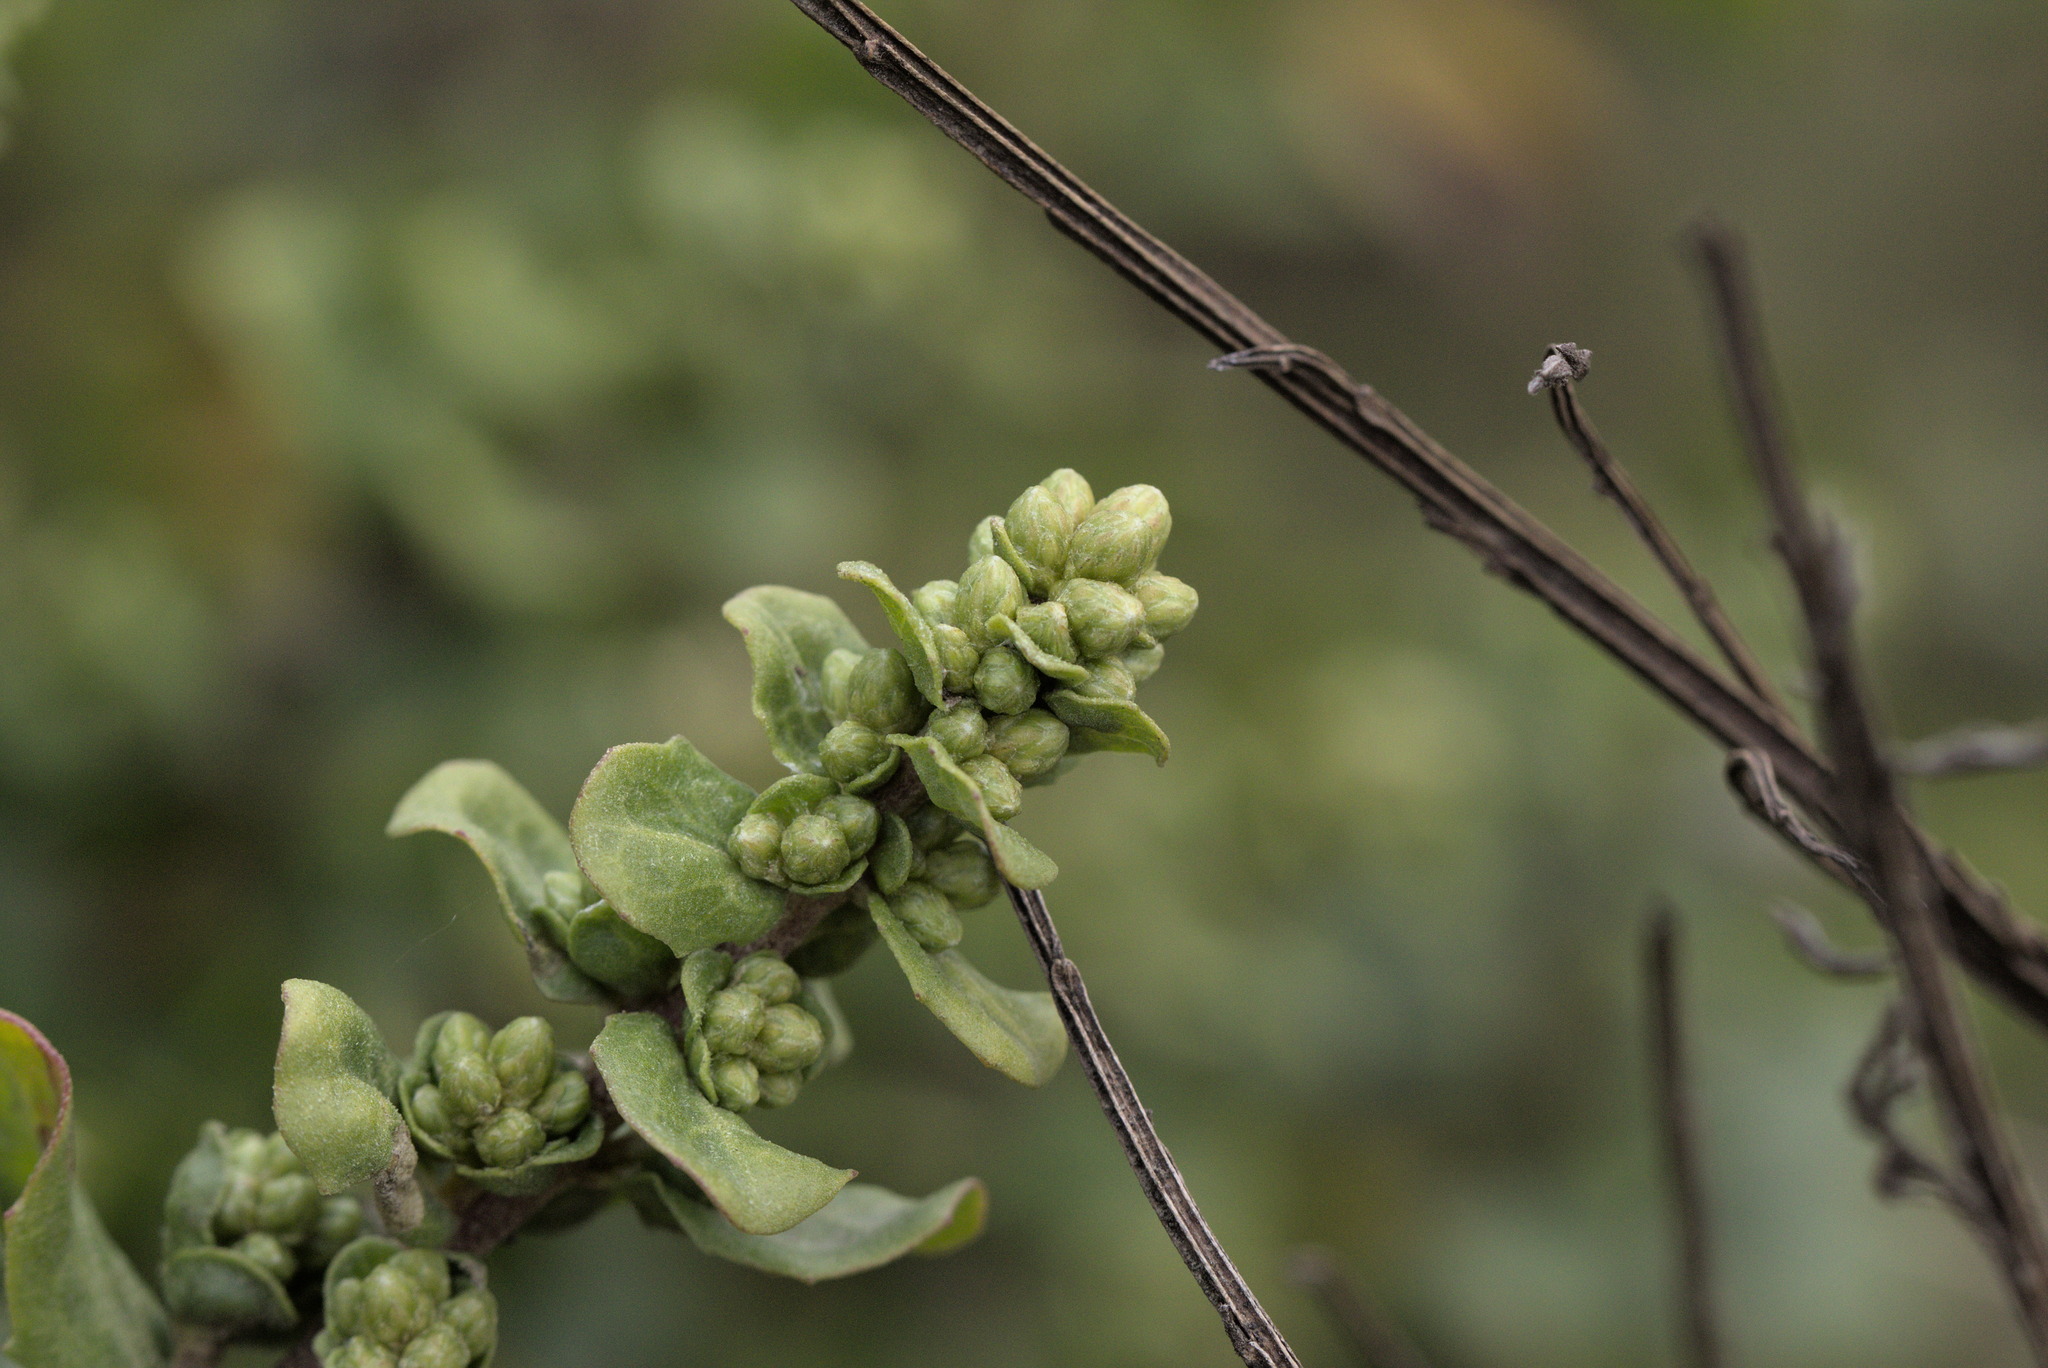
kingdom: Plantae
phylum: Tracheophyta
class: Magnoliopsida
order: Asterales
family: Asteraceae
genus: Baccharis
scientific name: Baccharis pilularis
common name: Coyotebrush
